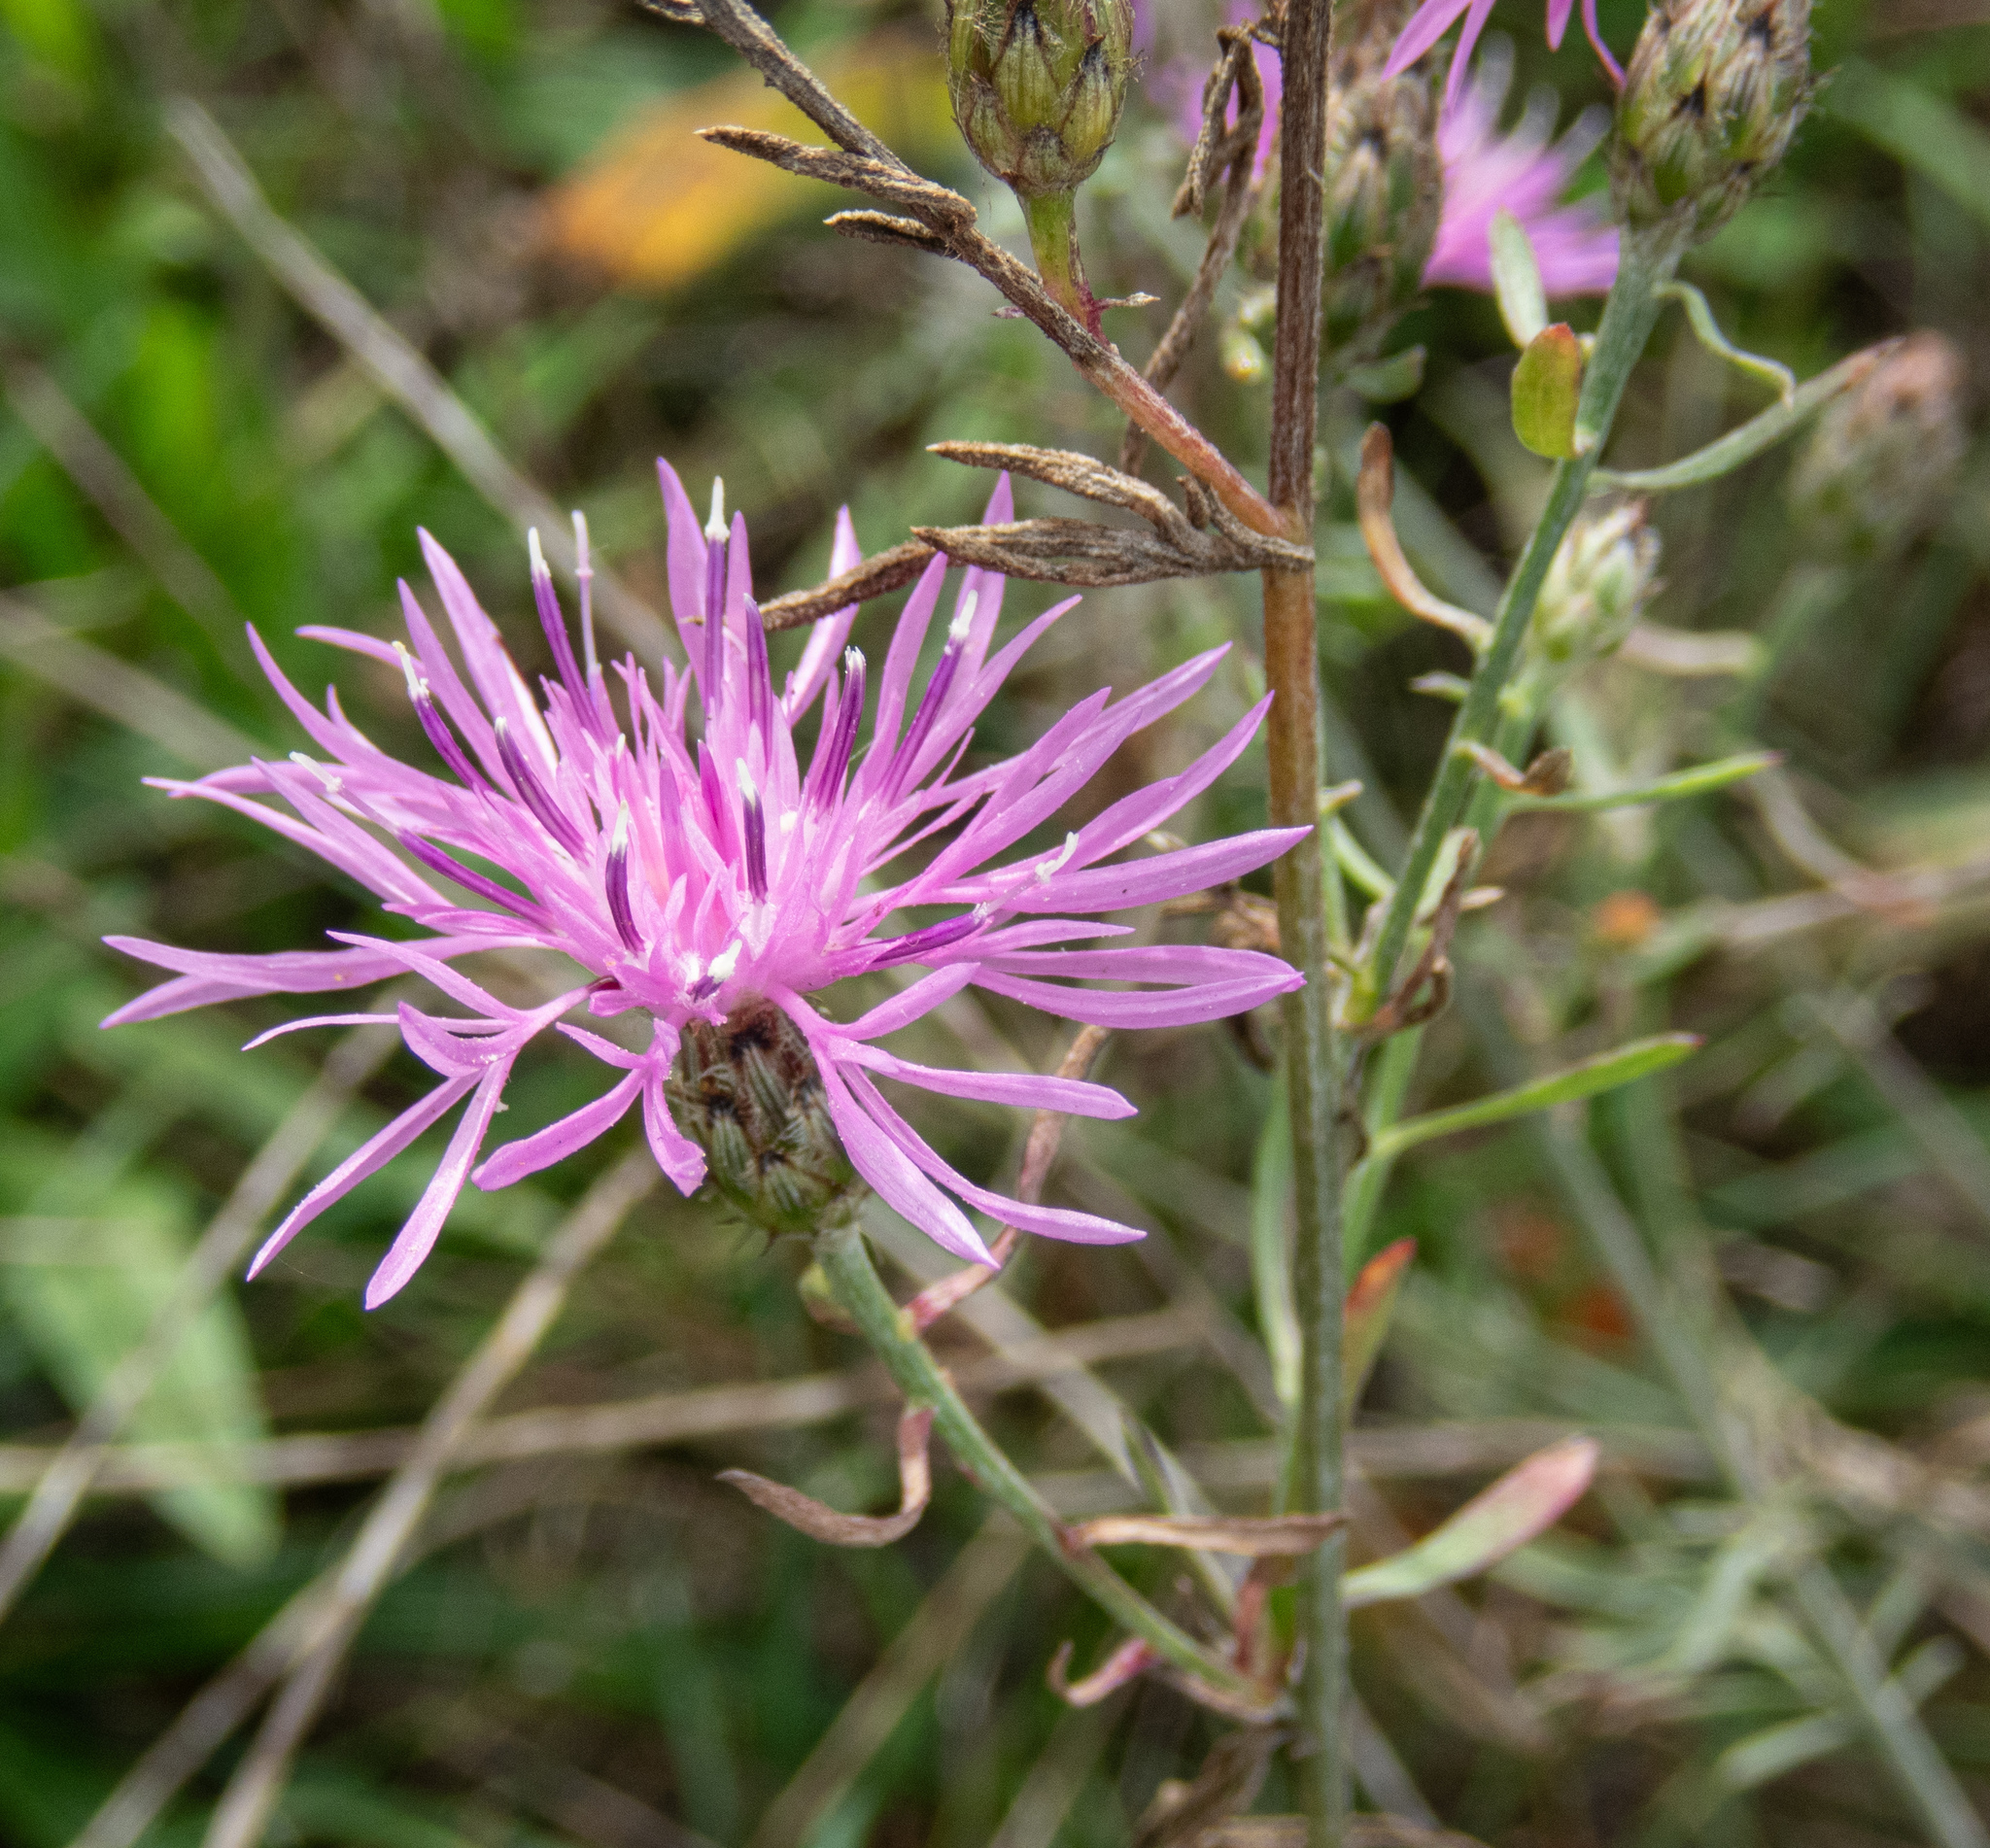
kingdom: Plantae
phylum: Tracheophyta
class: Magnoliopsida
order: Asterales
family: Asteraceae
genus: Centaurea
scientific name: Centaurea stoebe
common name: Spotted knapweed
